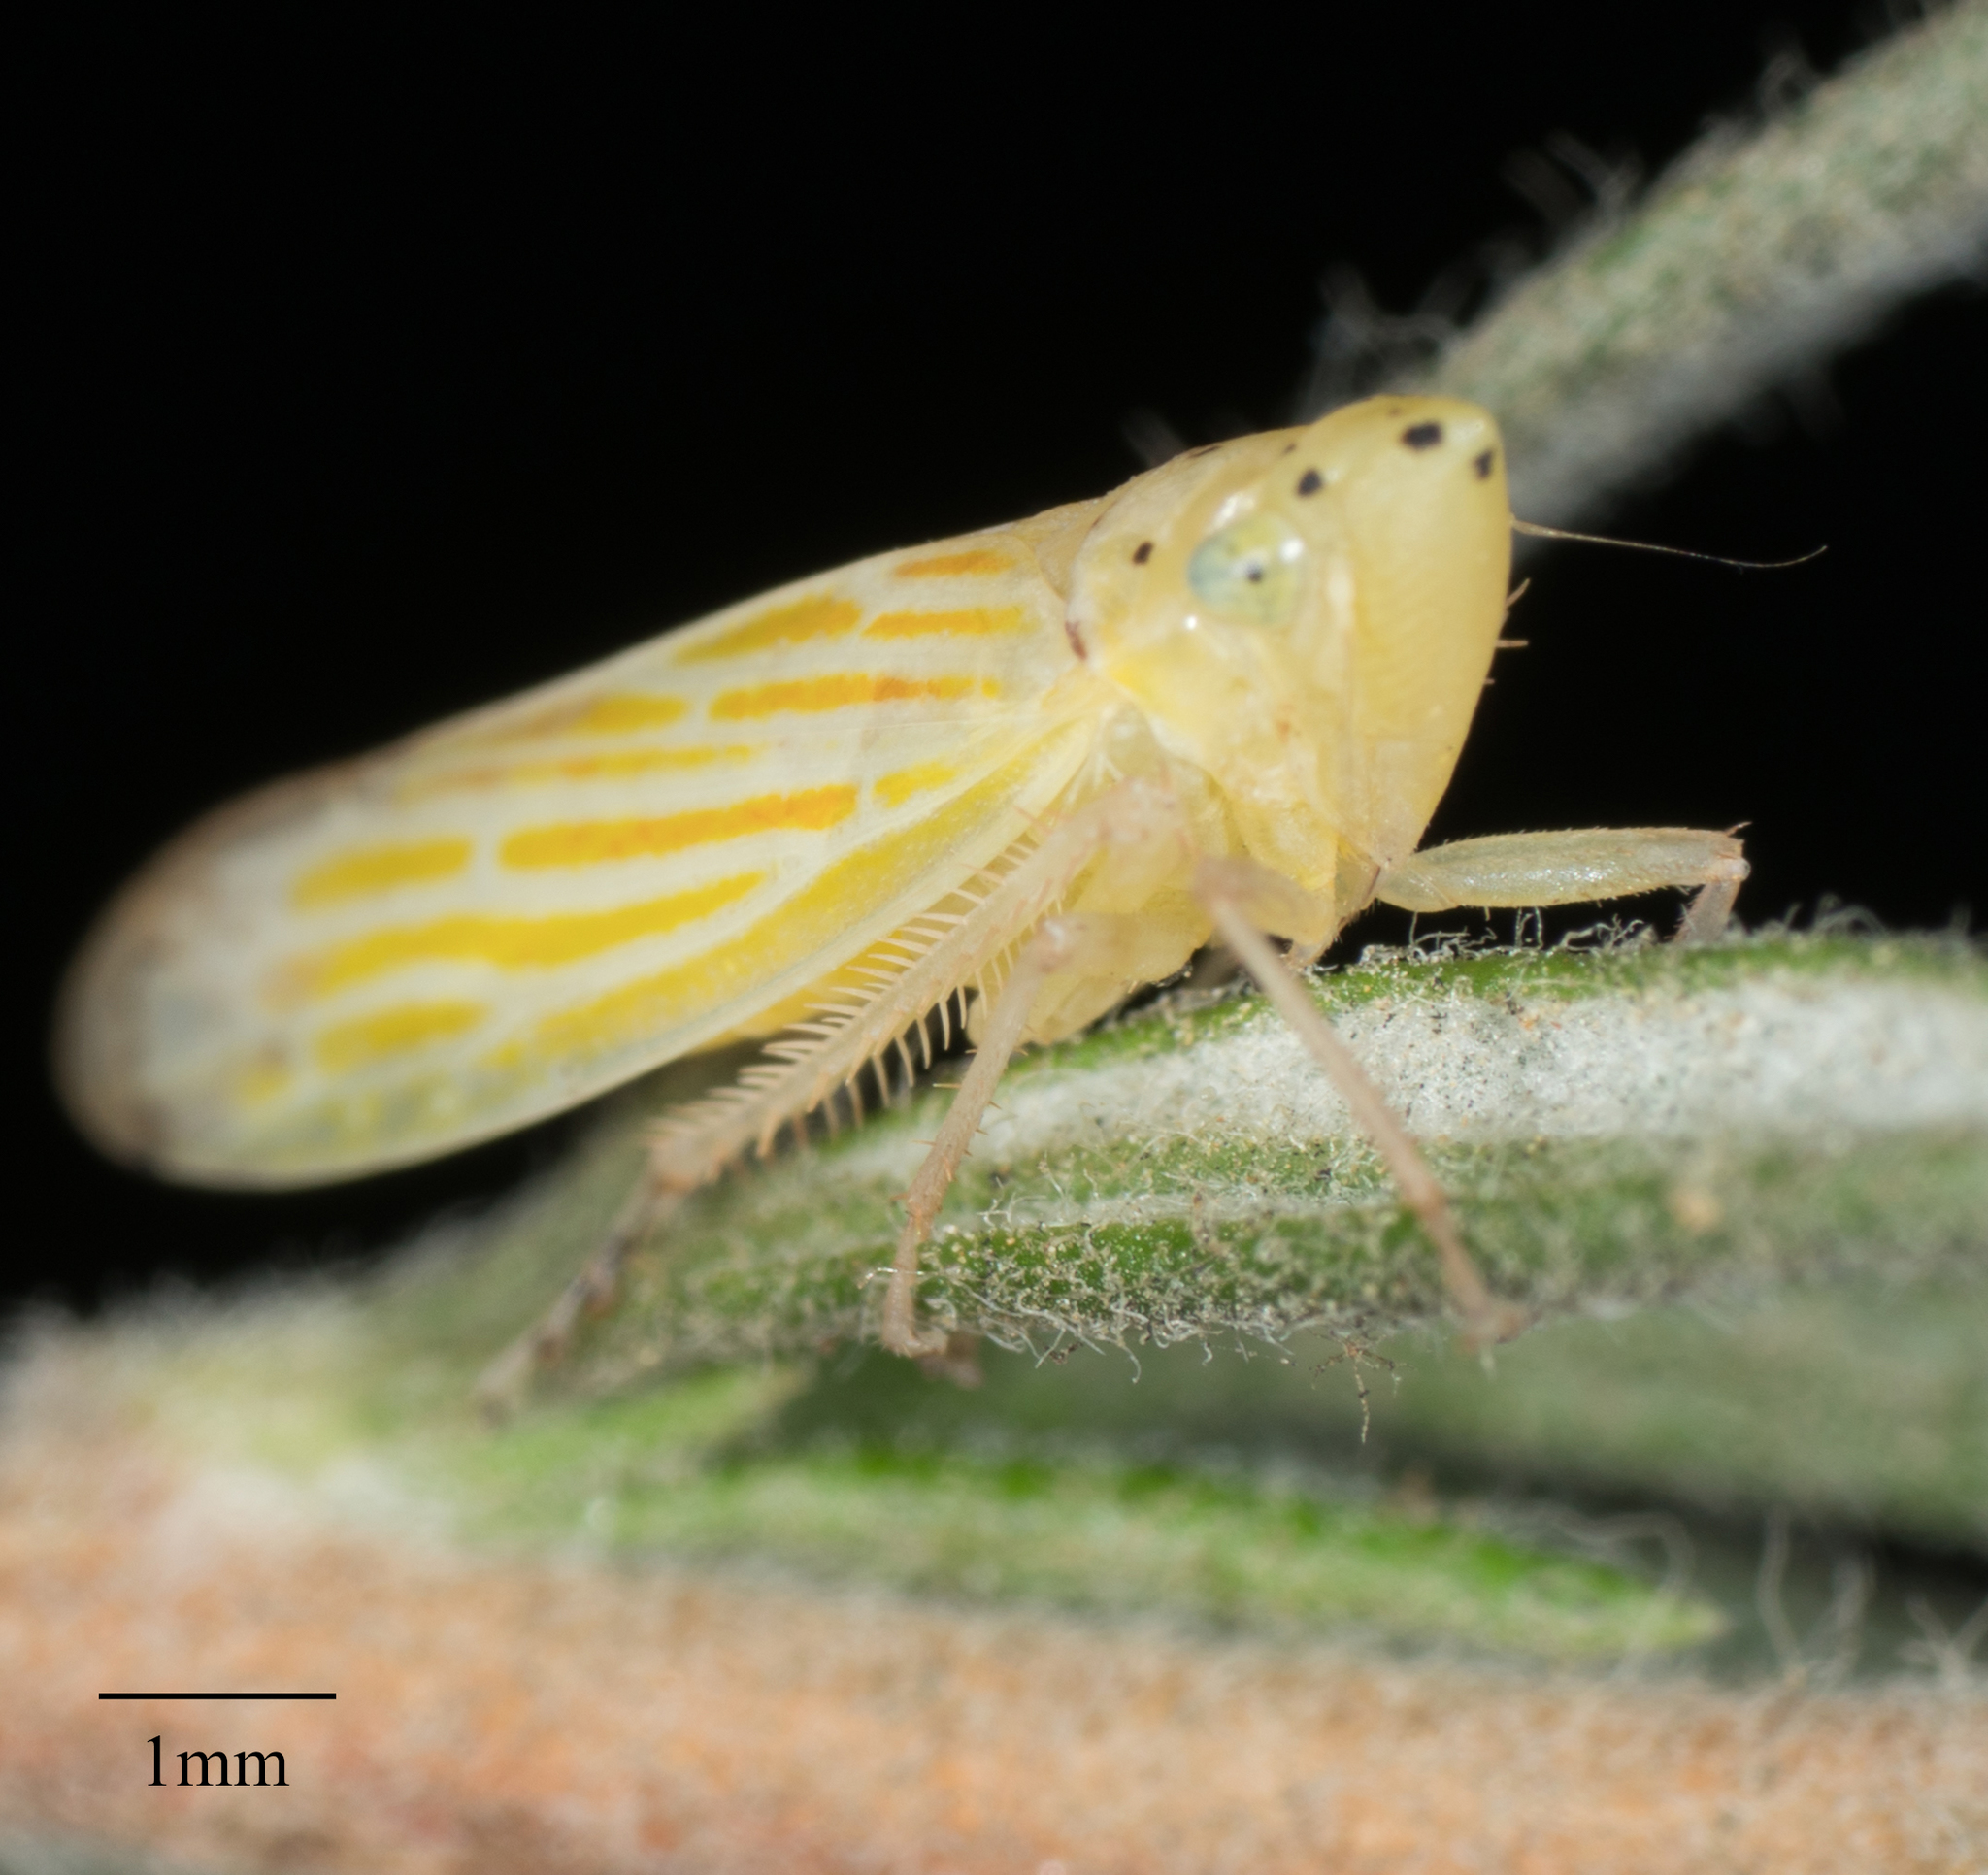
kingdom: Animalia
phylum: Arthropoda
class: Insecta
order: Hemiptera
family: Cicadellidae
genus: Pagaronia
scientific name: Pagaronia tredecimpunctata
